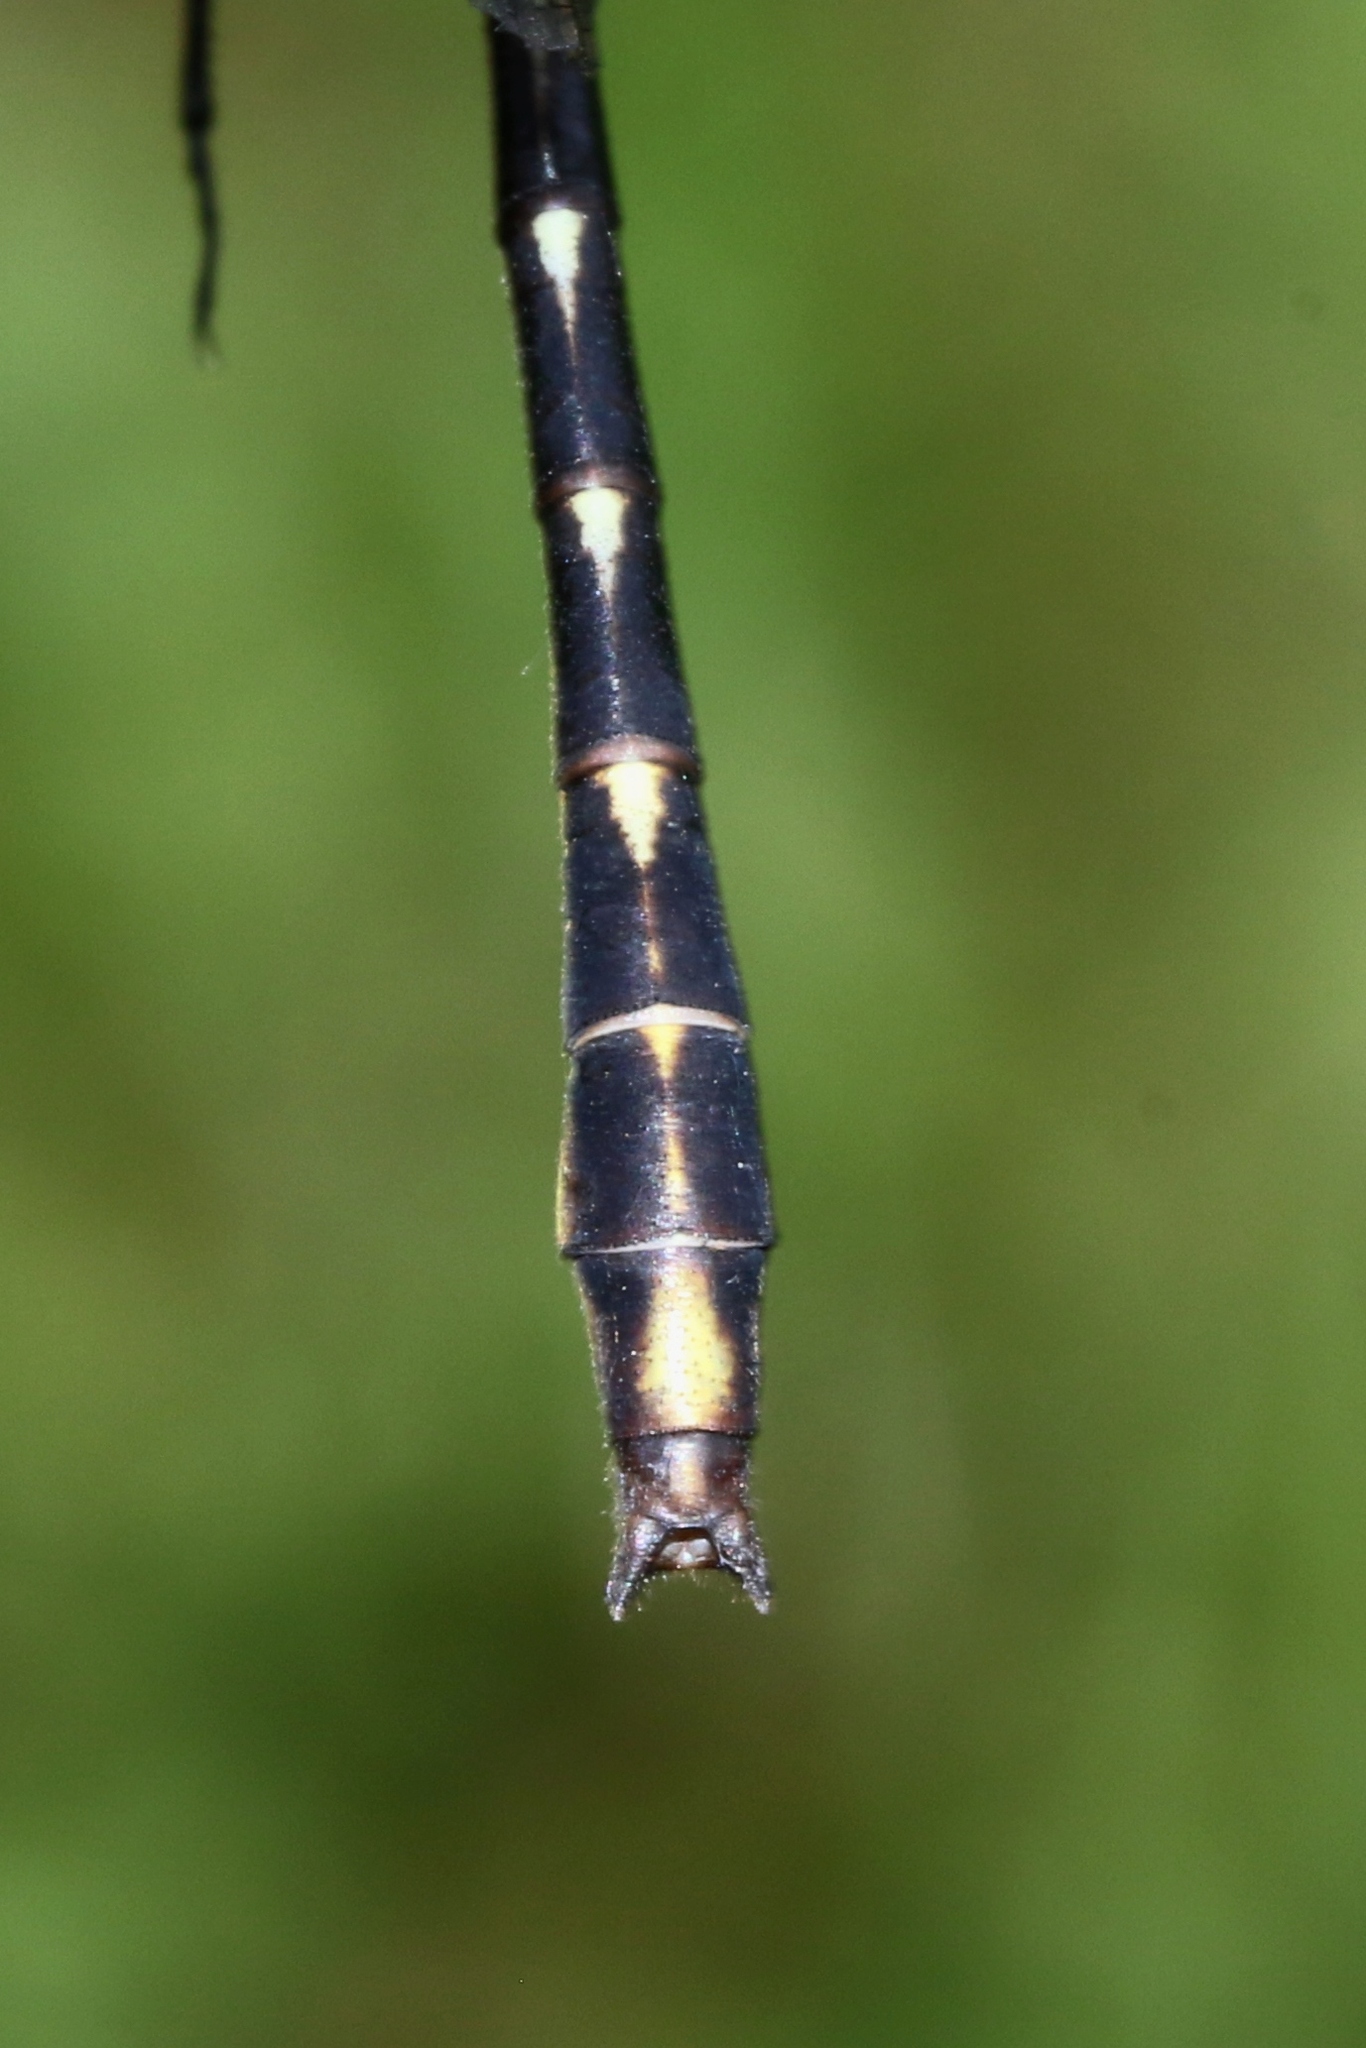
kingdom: Animalia
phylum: Arthropoda
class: Insecta
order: Odonata
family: Gomphidae
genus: Phanogomphus
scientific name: Phanogomphus exilis
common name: Lancet clubtail
